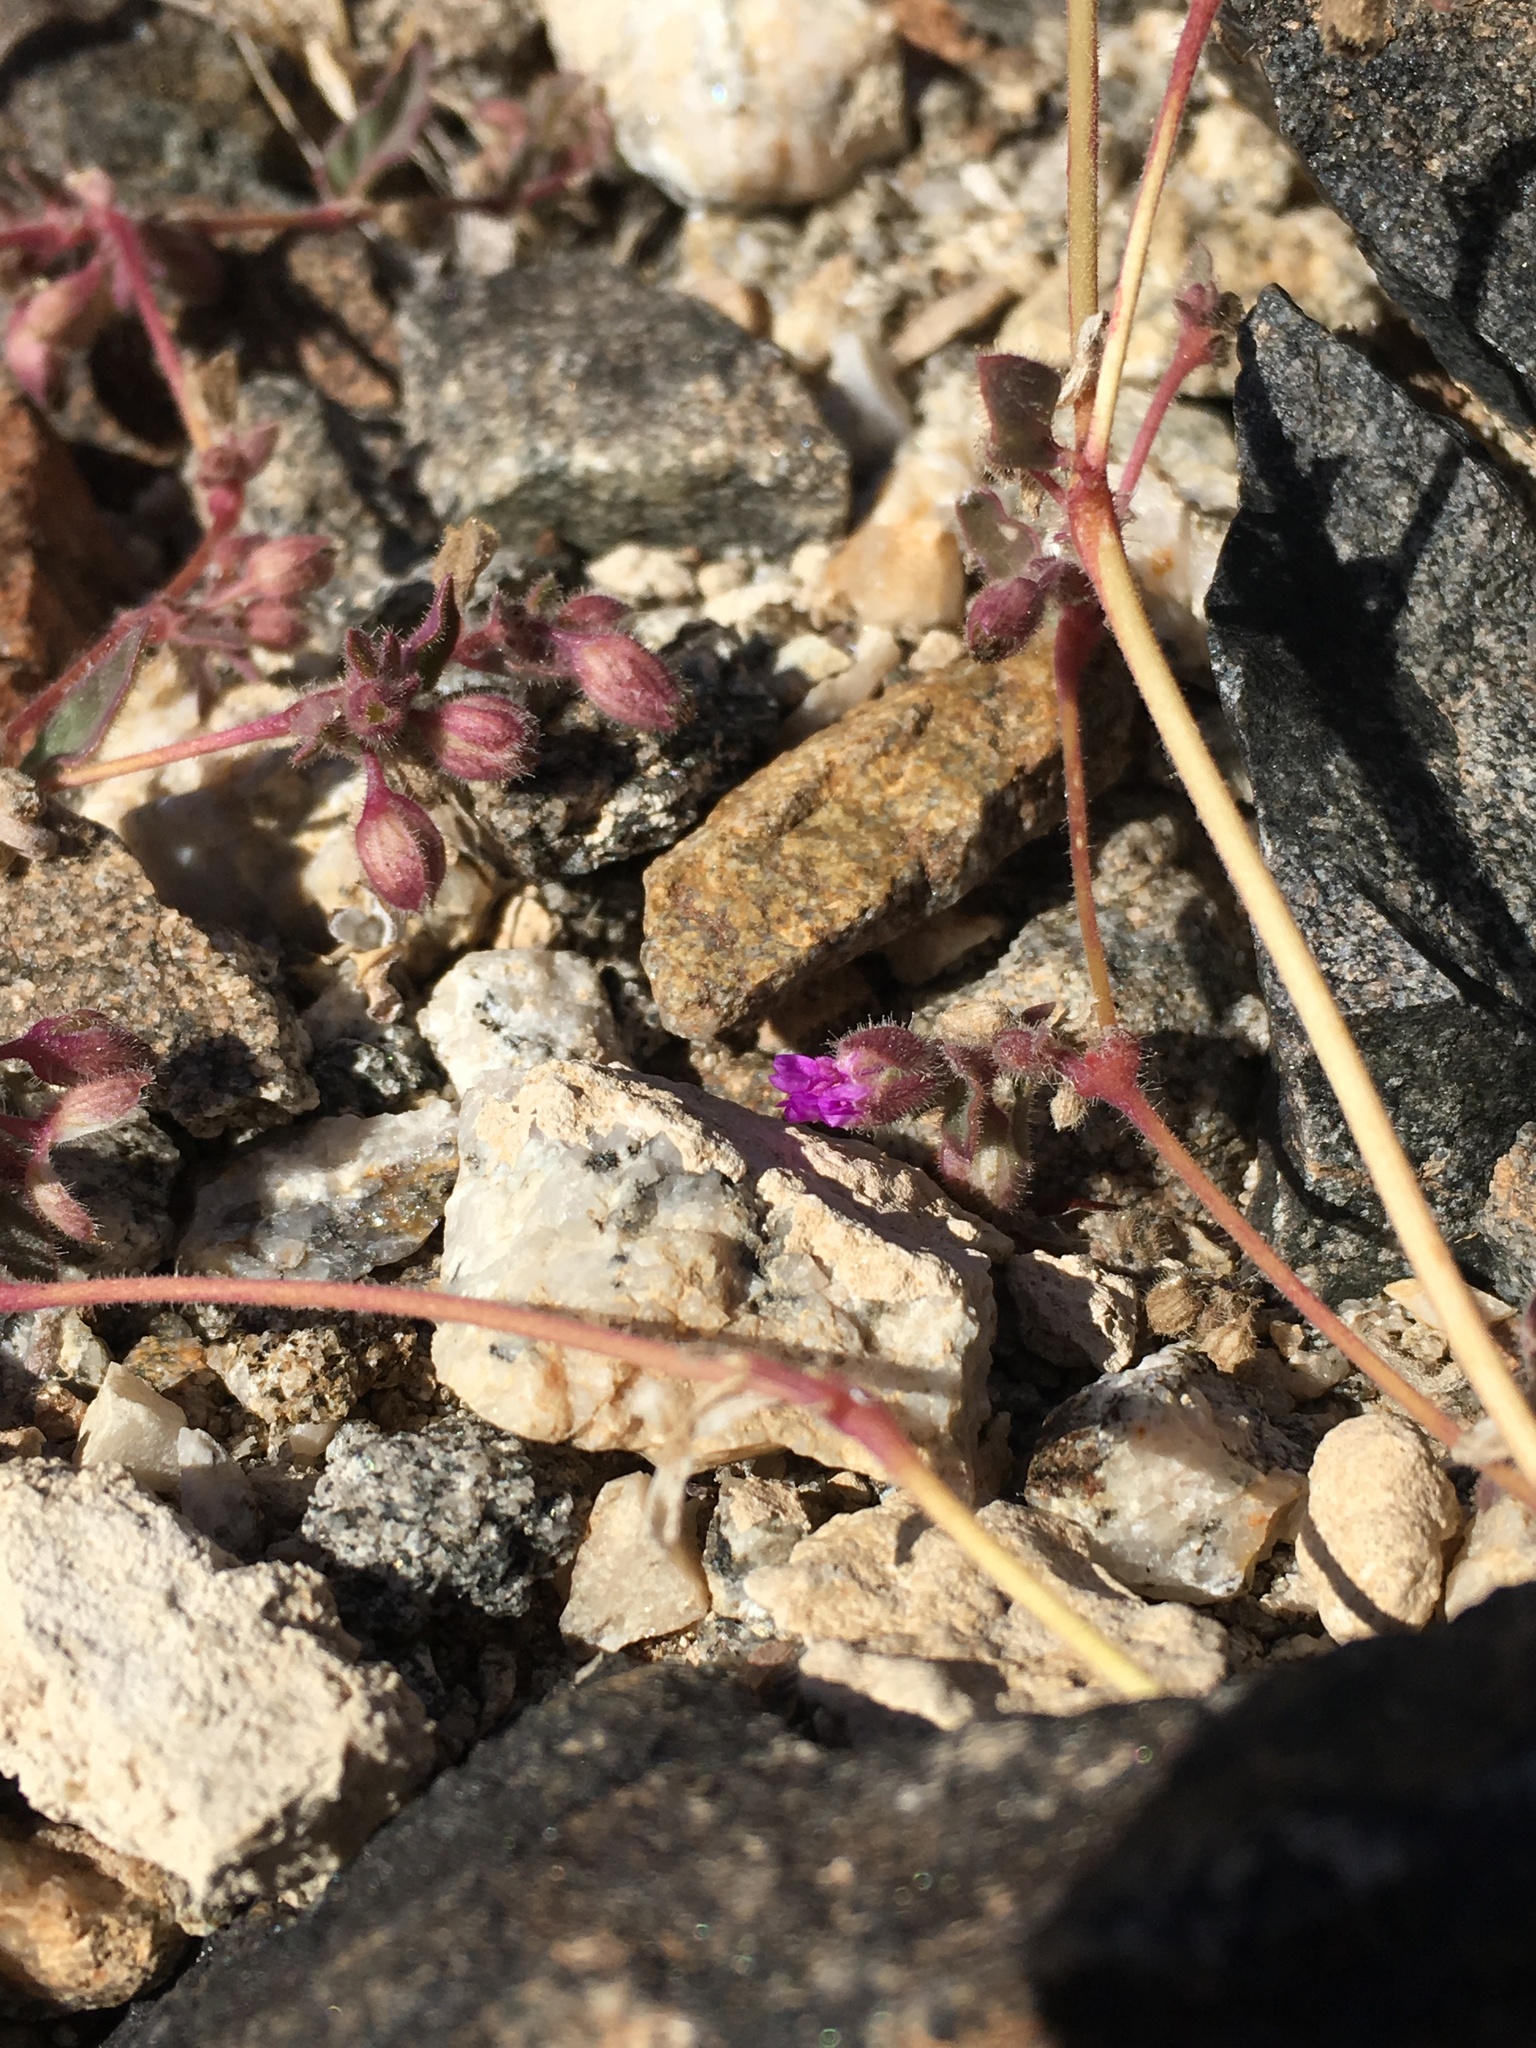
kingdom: Plantae
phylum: Tracheophyta
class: Magnoliopsida
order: Caryophyllales
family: Nyctaginaceae
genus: Allionia
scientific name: Allionia incarnata
